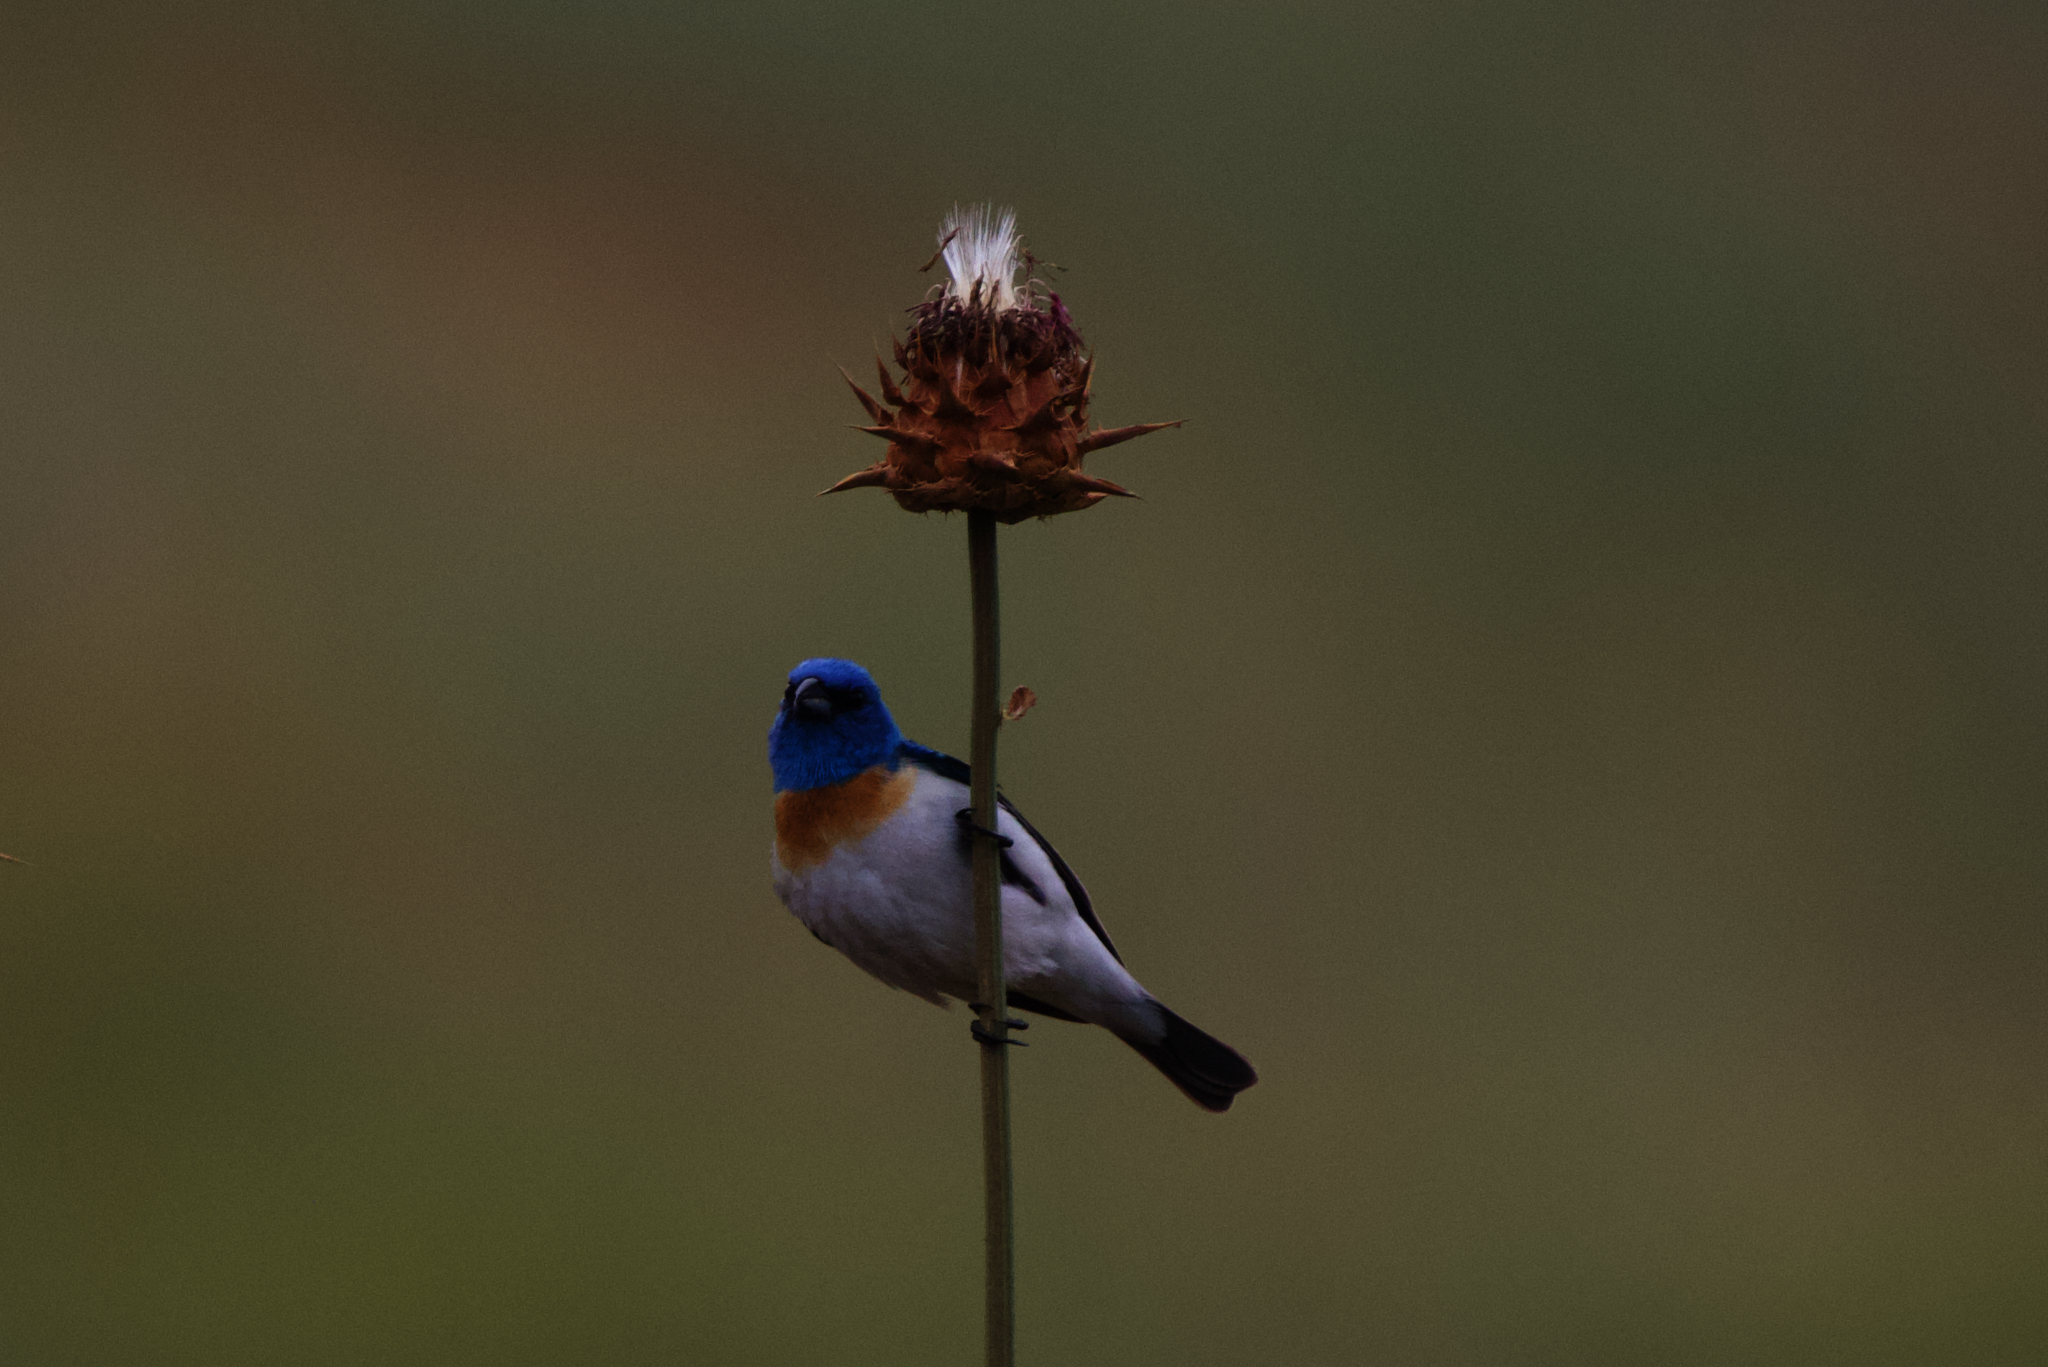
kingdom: Animalia
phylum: Chordata
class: Aves
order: Passeriformes
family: Cardinalidae
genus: Passerina
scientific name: Passerina amoena
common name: Lazuli bunting
